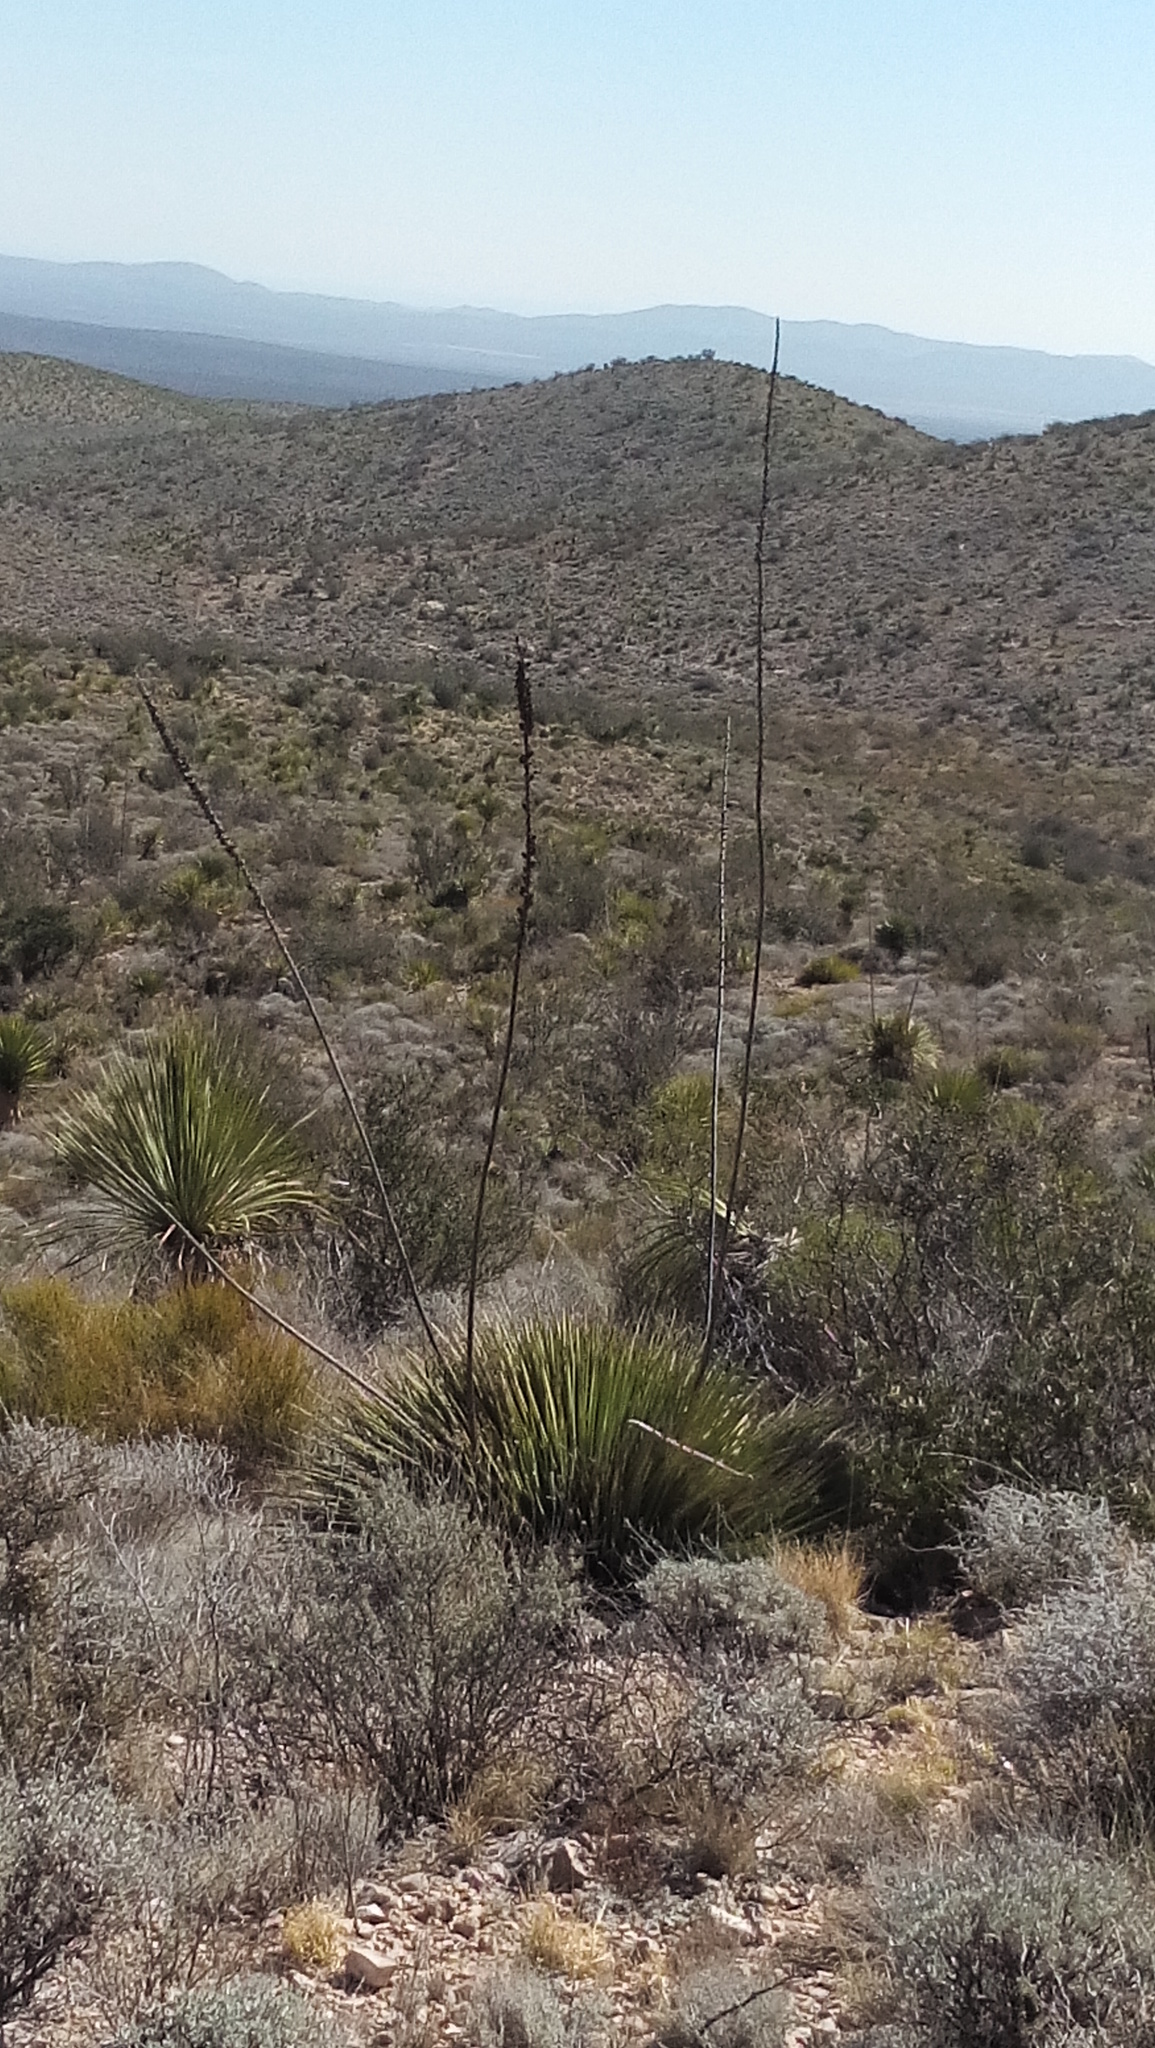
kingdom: Plantae
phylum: Tracheophyta
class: Liliopsida
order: Asparagales
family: Asparagaceae
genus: Dasylirion
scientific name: Dasylirion acrotrichum
